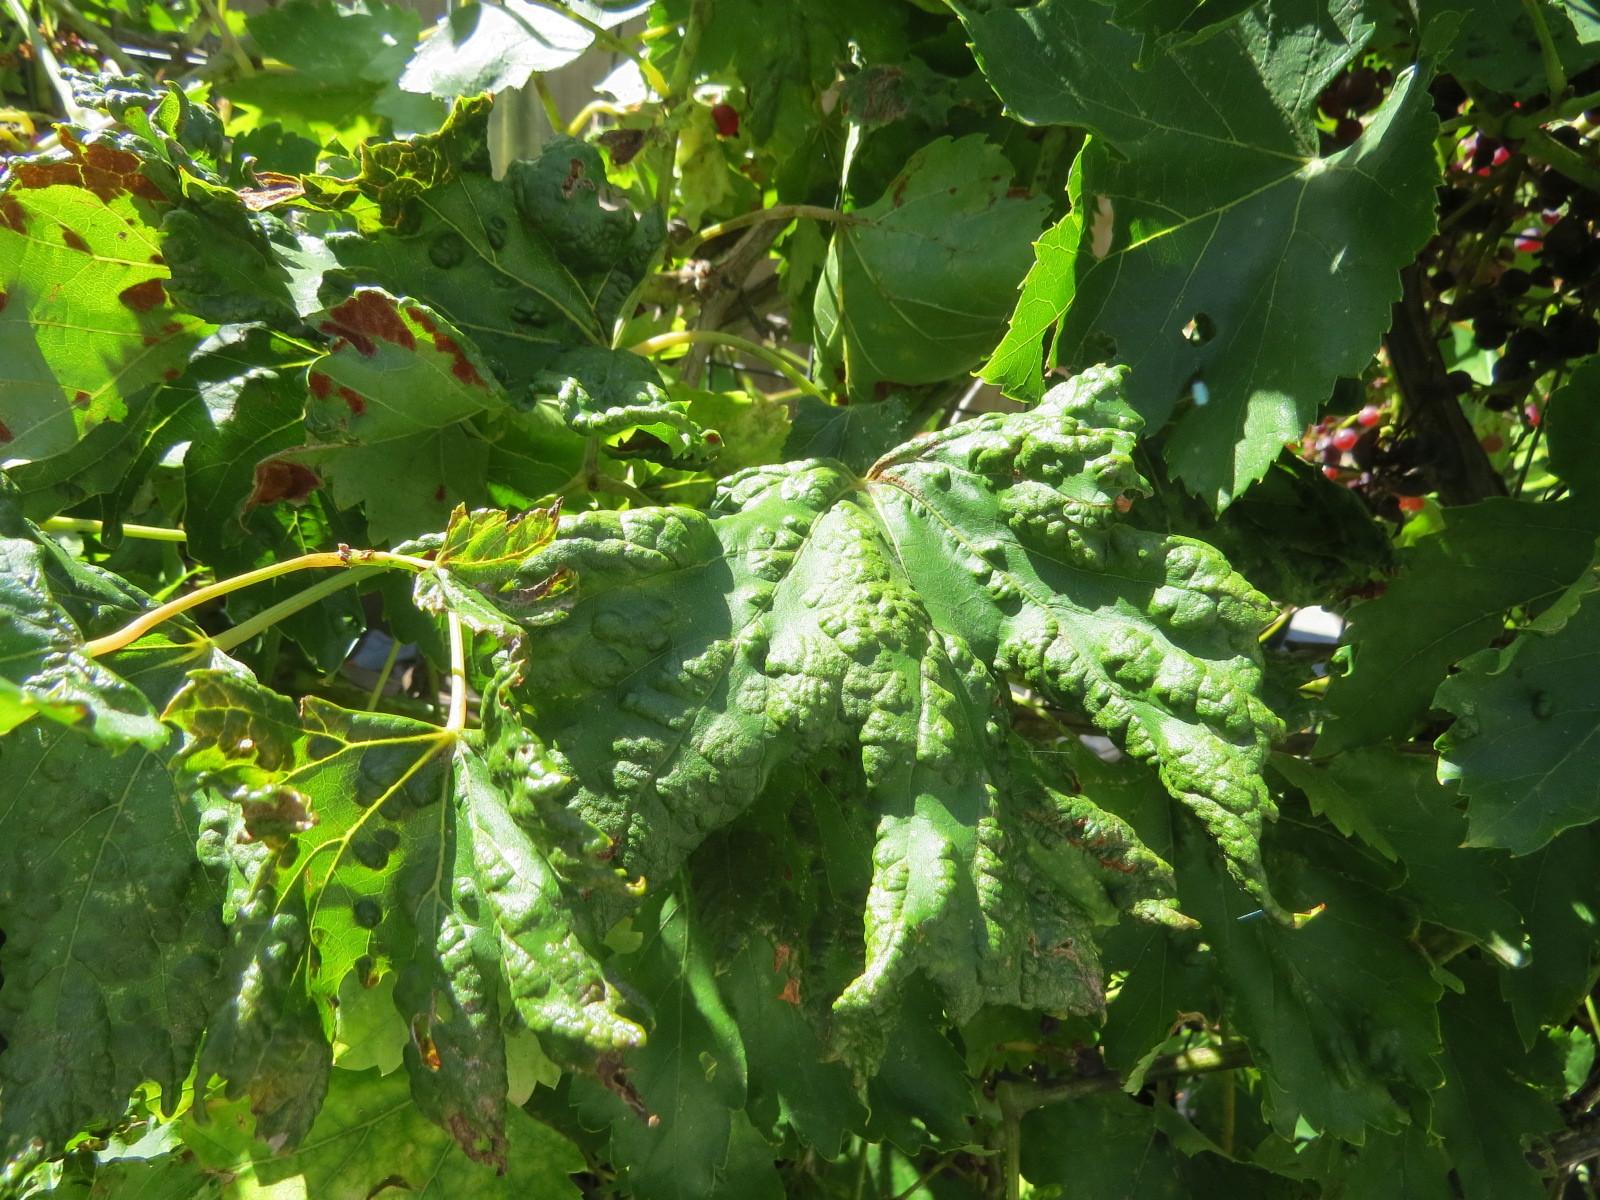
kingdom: Animalia
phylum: Arthropoda
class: Arachnida
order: Trombidiformes
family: Eriophyidae
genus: Colomerus
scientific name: Colomerus vitis
